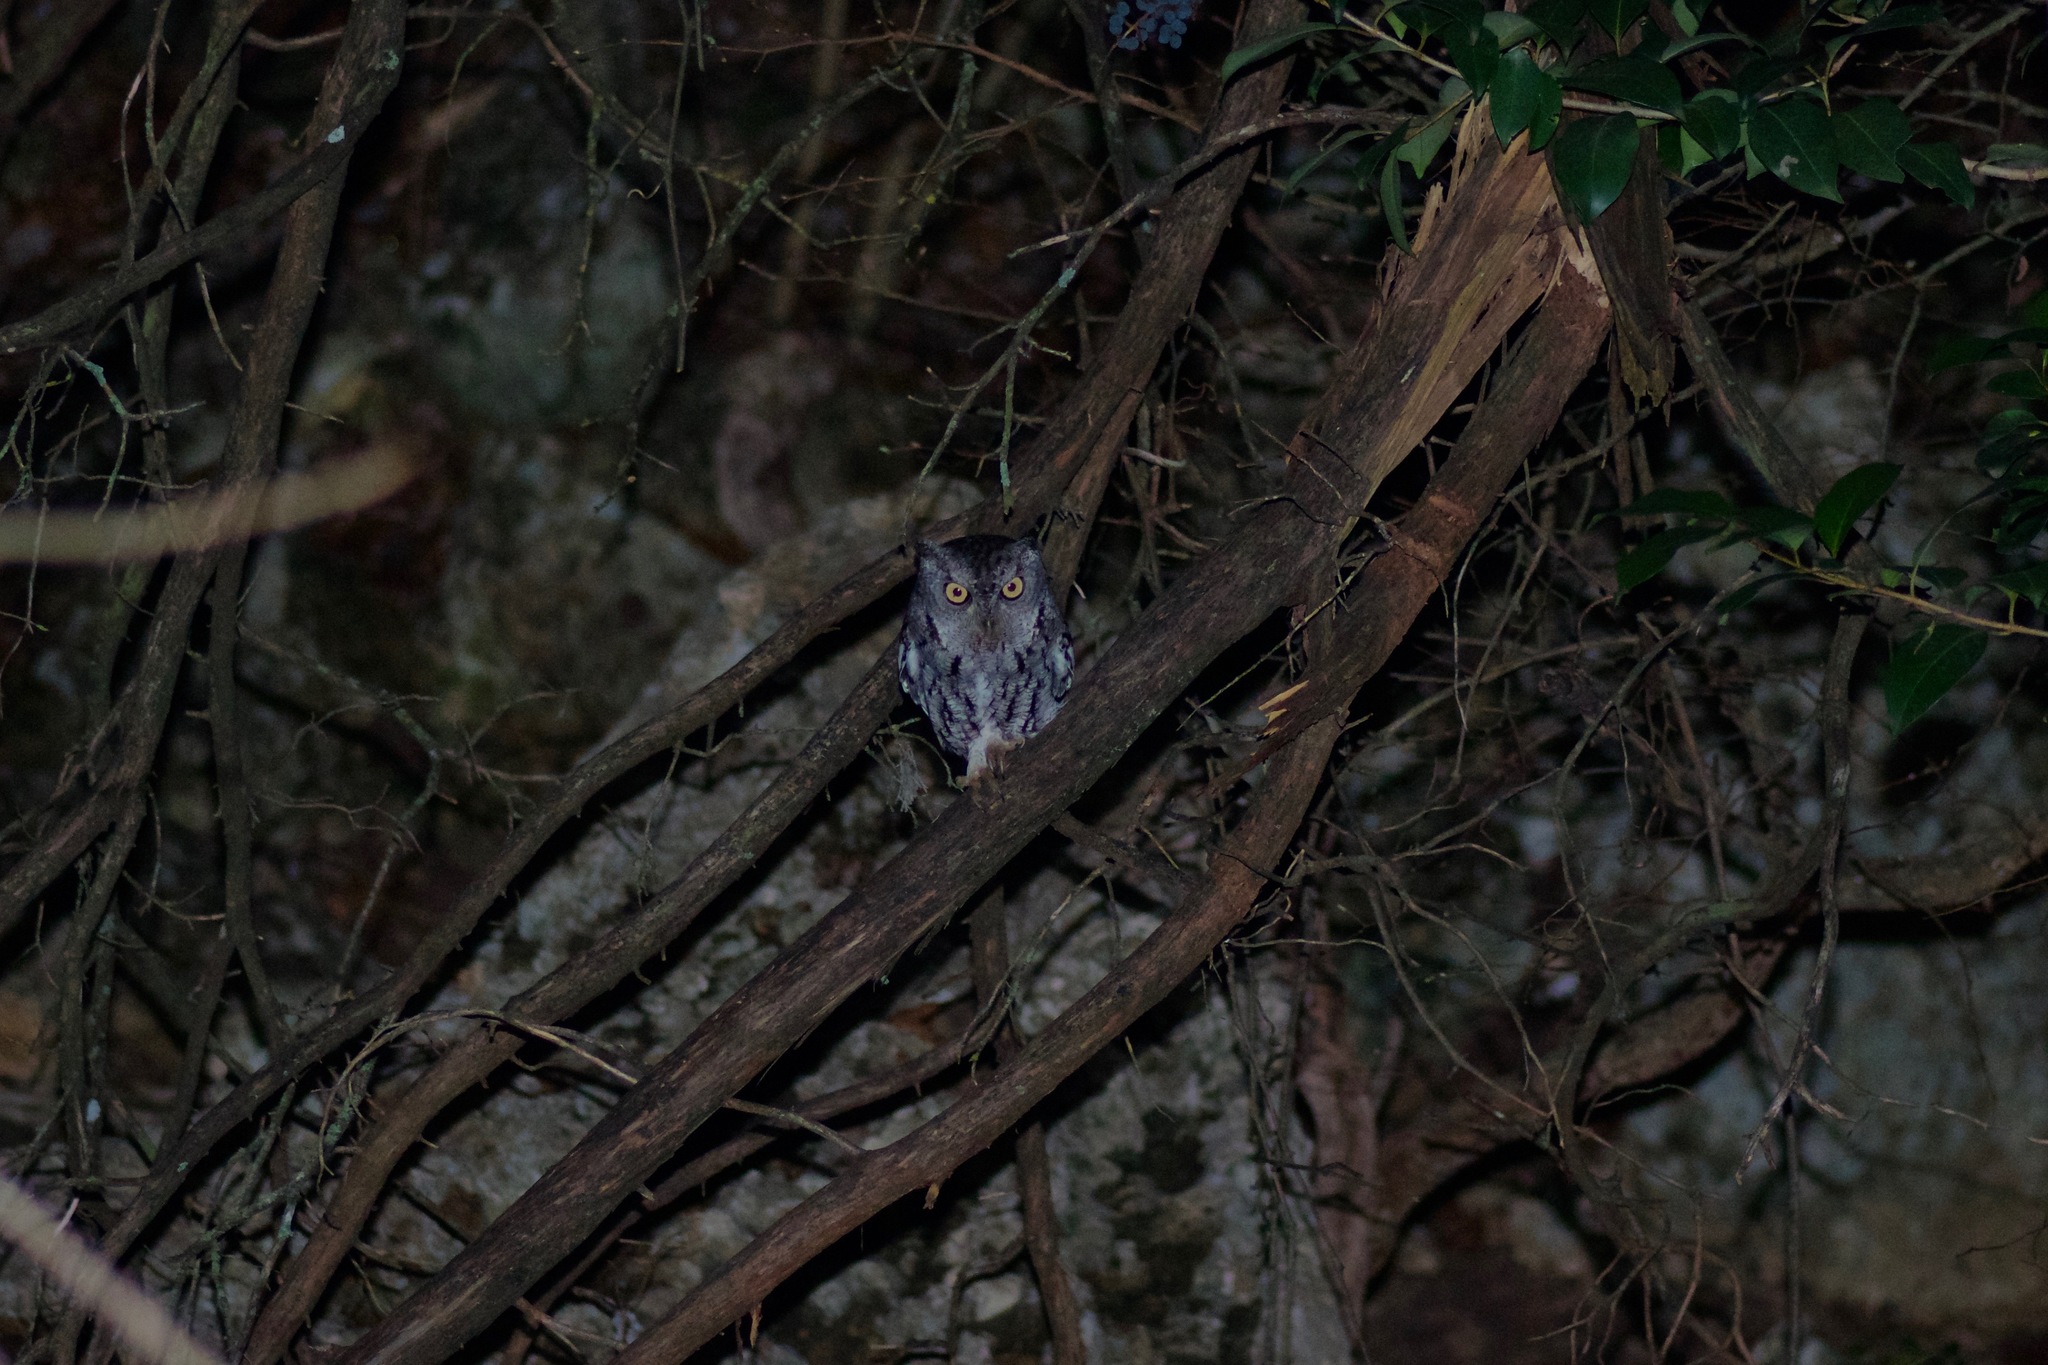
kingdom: Animalia
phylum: Chordata
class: Aves
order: Strigiformes
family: Strigidae
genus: Megascops
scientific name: Megascops asio
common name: Eastern screech-owl
